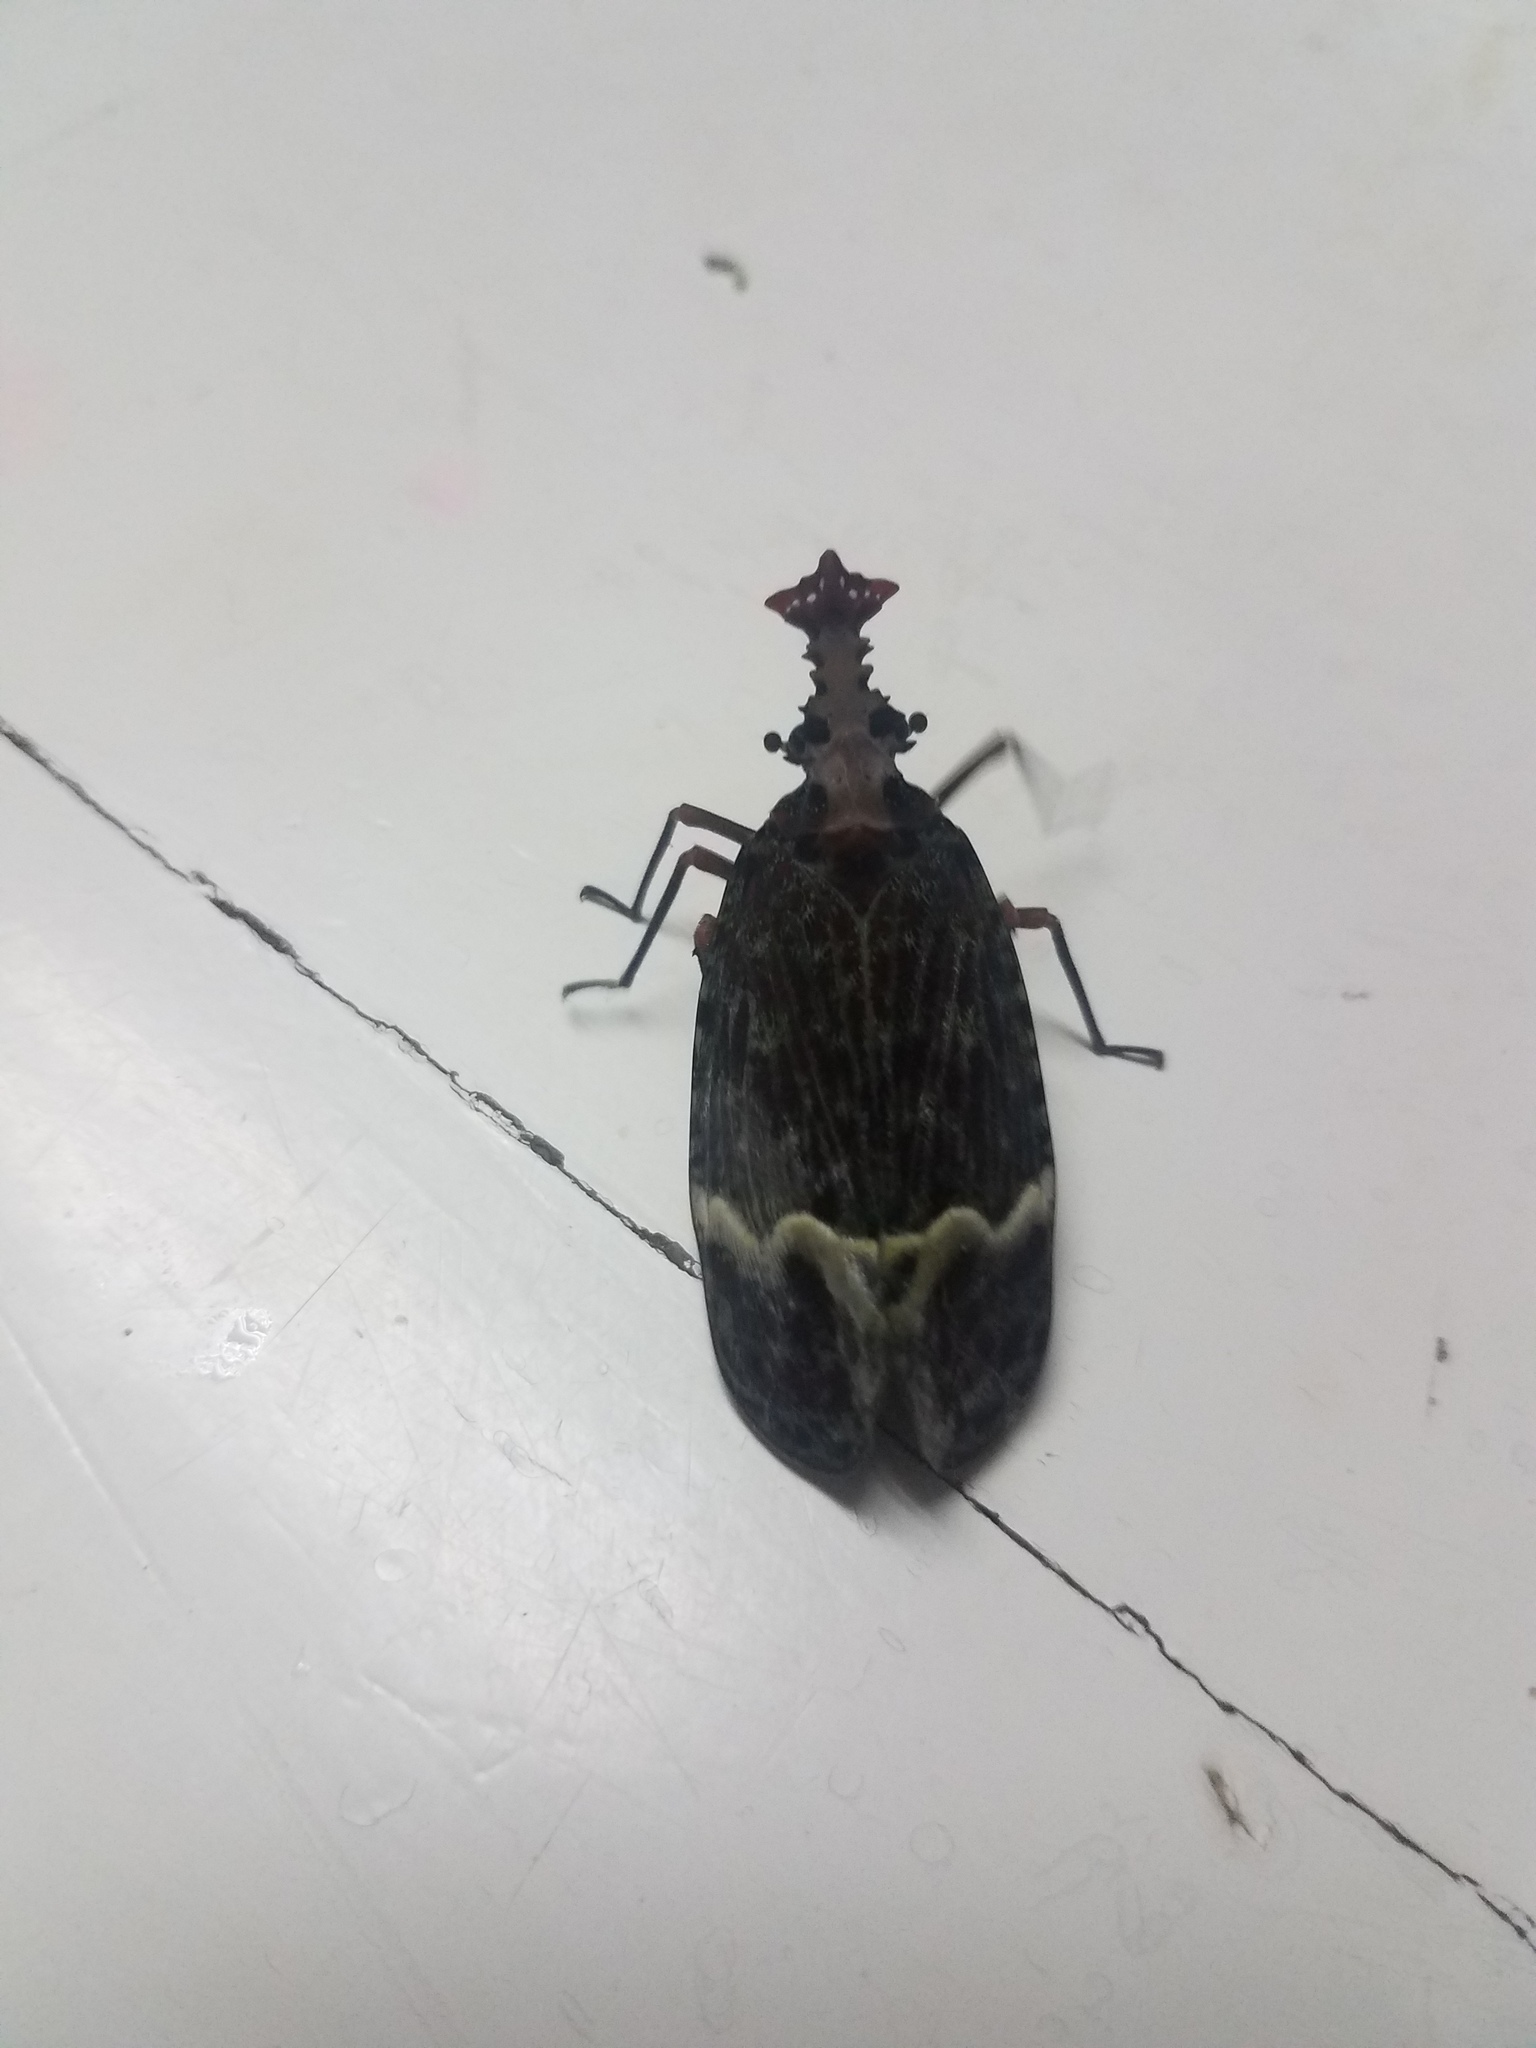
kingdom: Animalia
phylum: Arthropoda
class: Insecta
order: Hemiptera
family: Fulgoridae
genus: Phrictus
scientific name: Phrictus tripartitus
